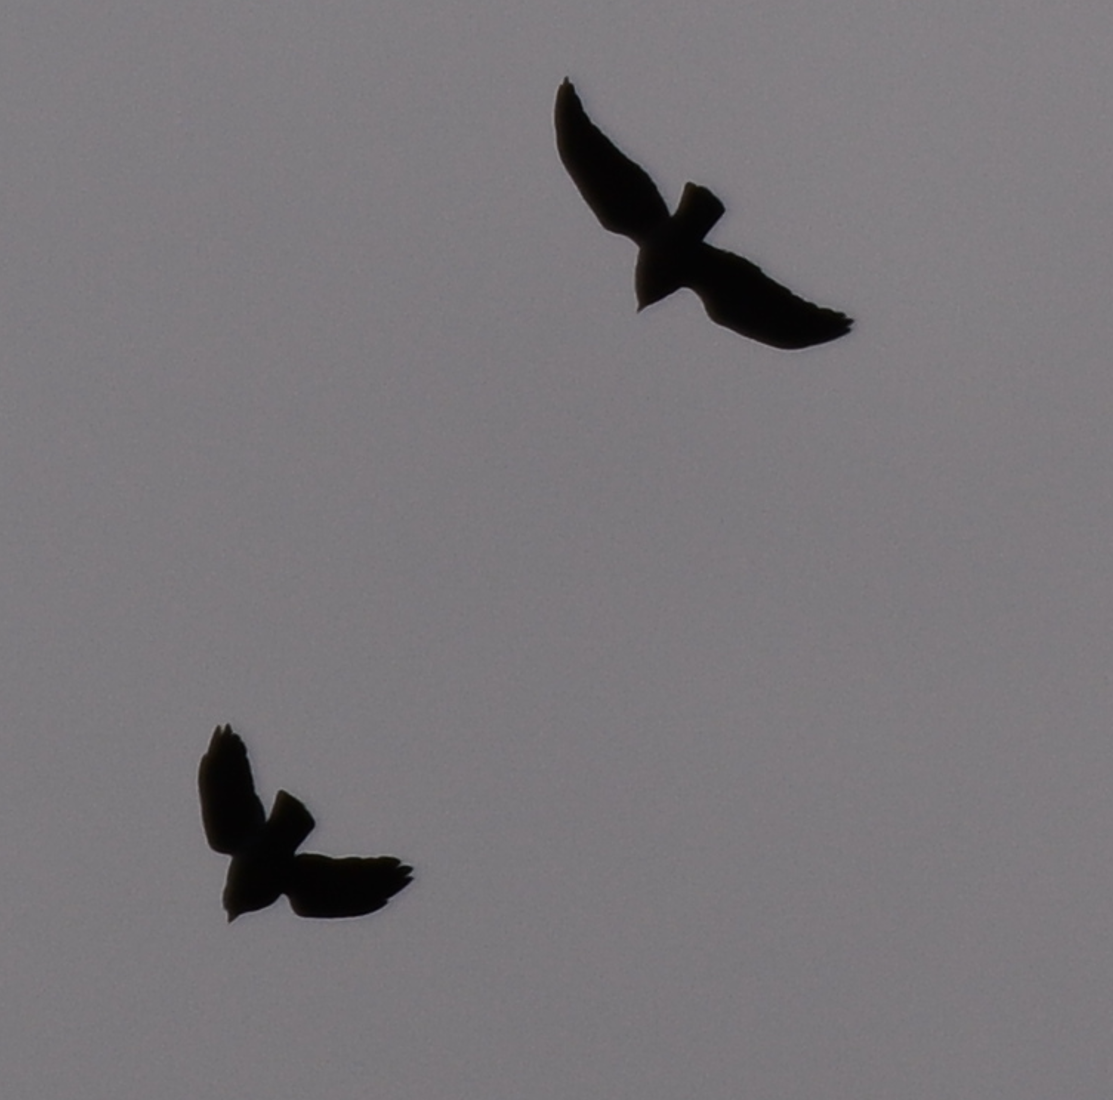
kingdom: Animalia
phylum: Chordata
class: Aves
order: Passeriformes
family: Corvidae
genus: Coloeus
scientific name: Coloeus monedula
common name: Western jackdaw
